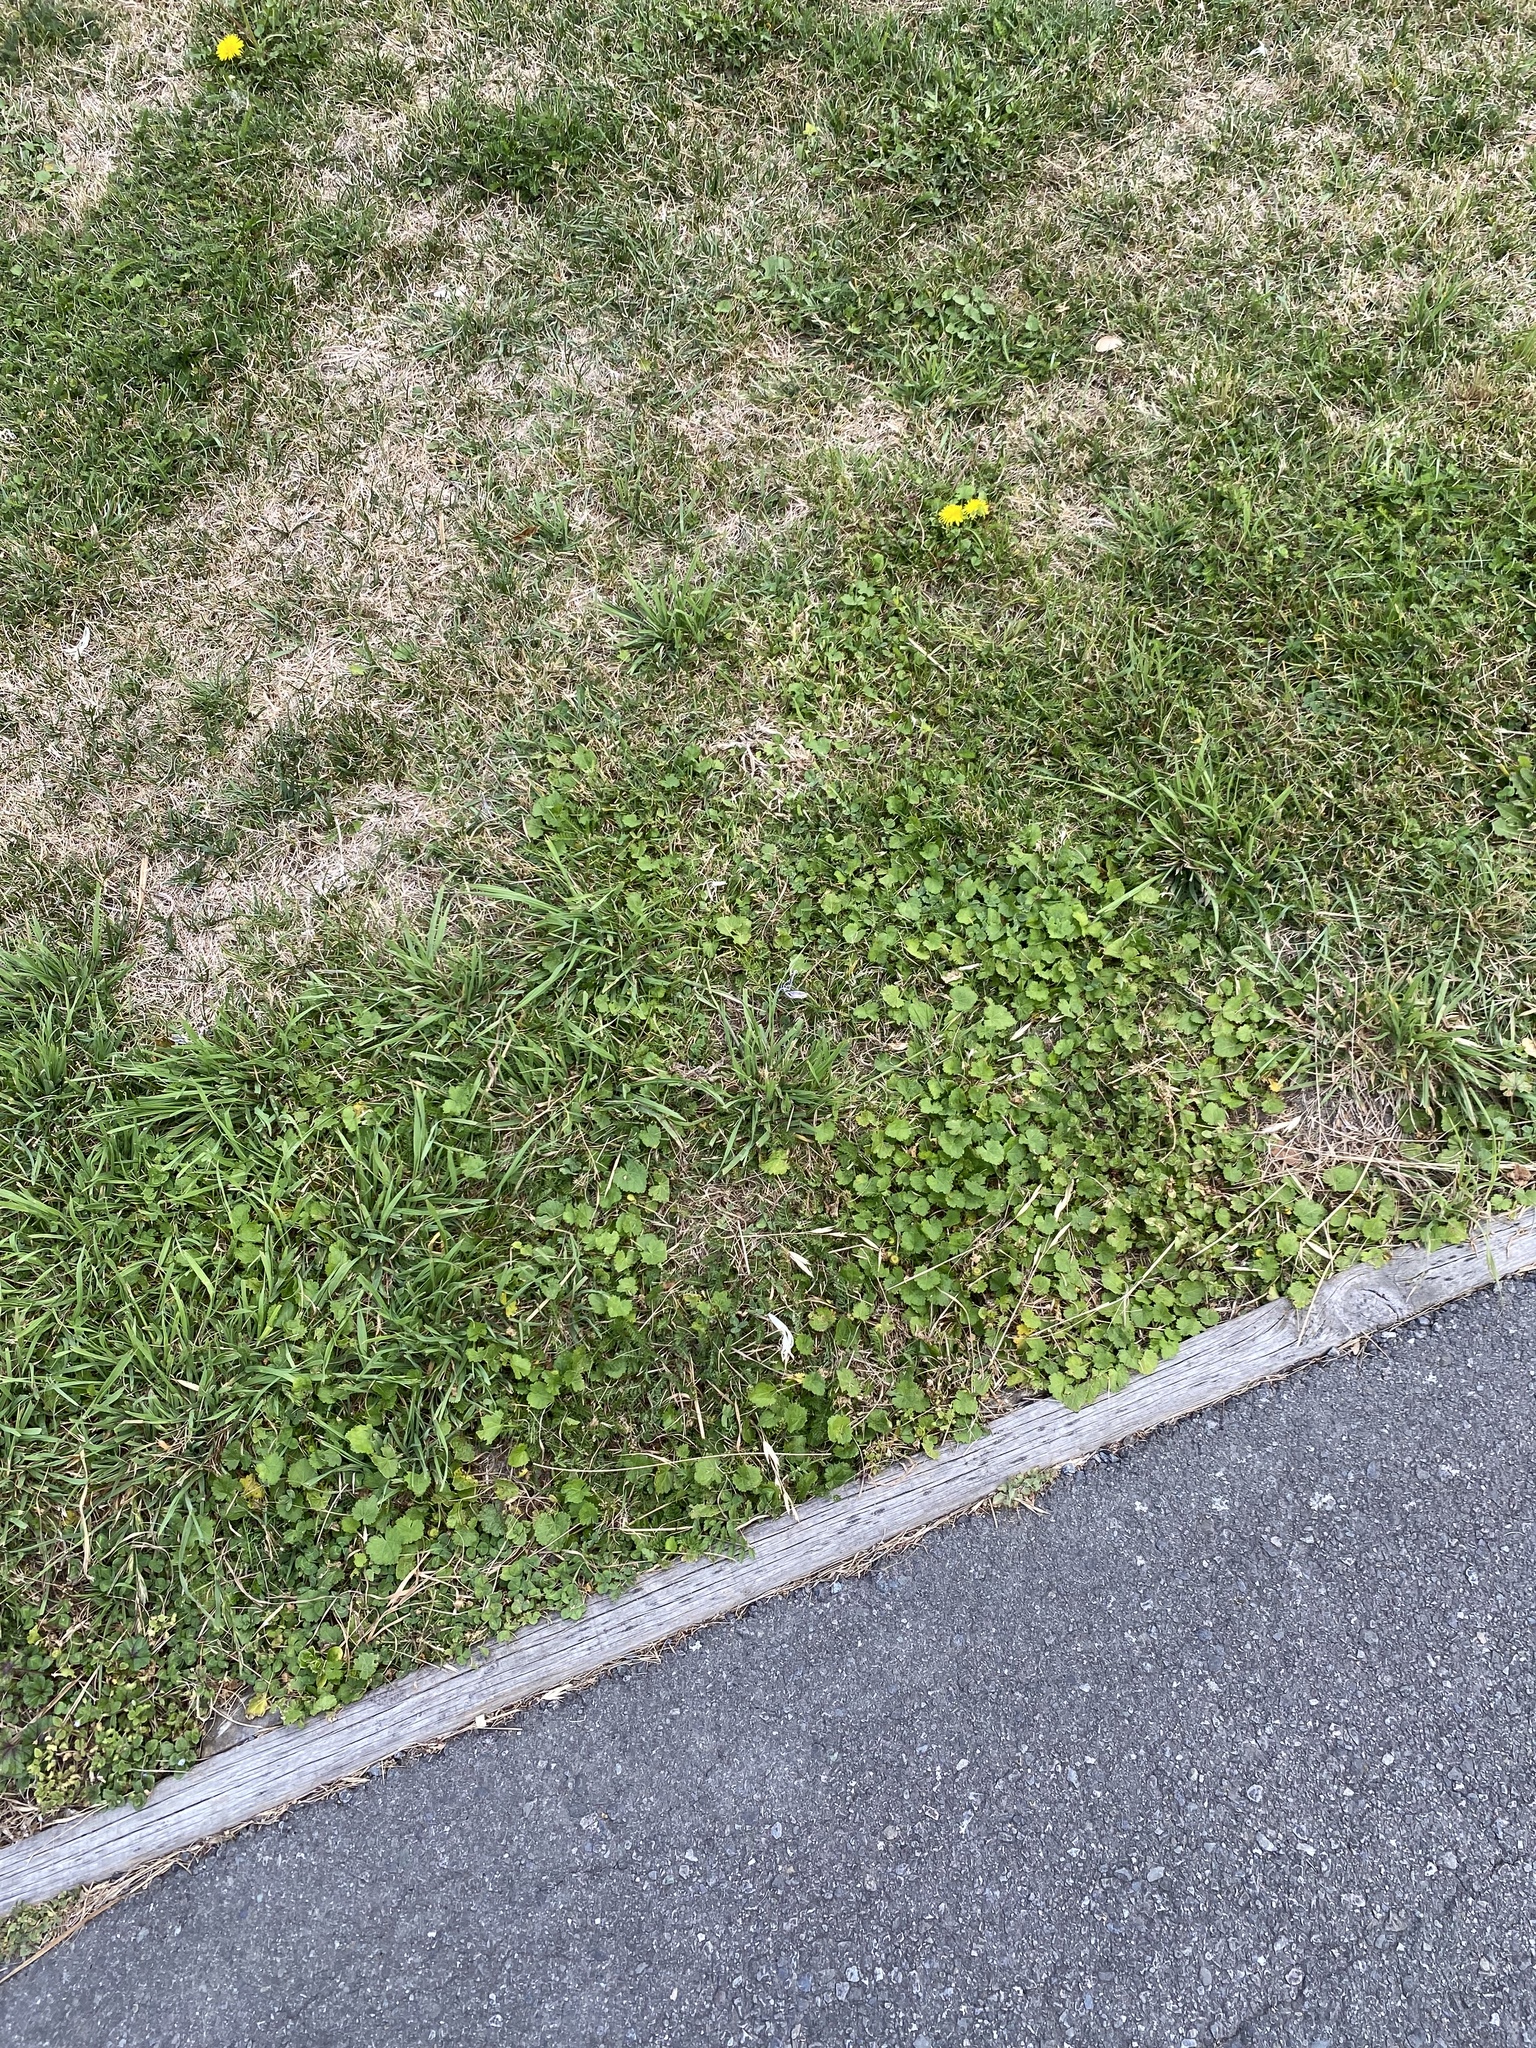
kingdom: Plantae
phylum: Tracheophyta
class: Magnoliopsida
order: Malvales
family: Malvaceae
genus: Modiola
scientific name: Modiola caroliniana
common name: Carolina bristlemallow
